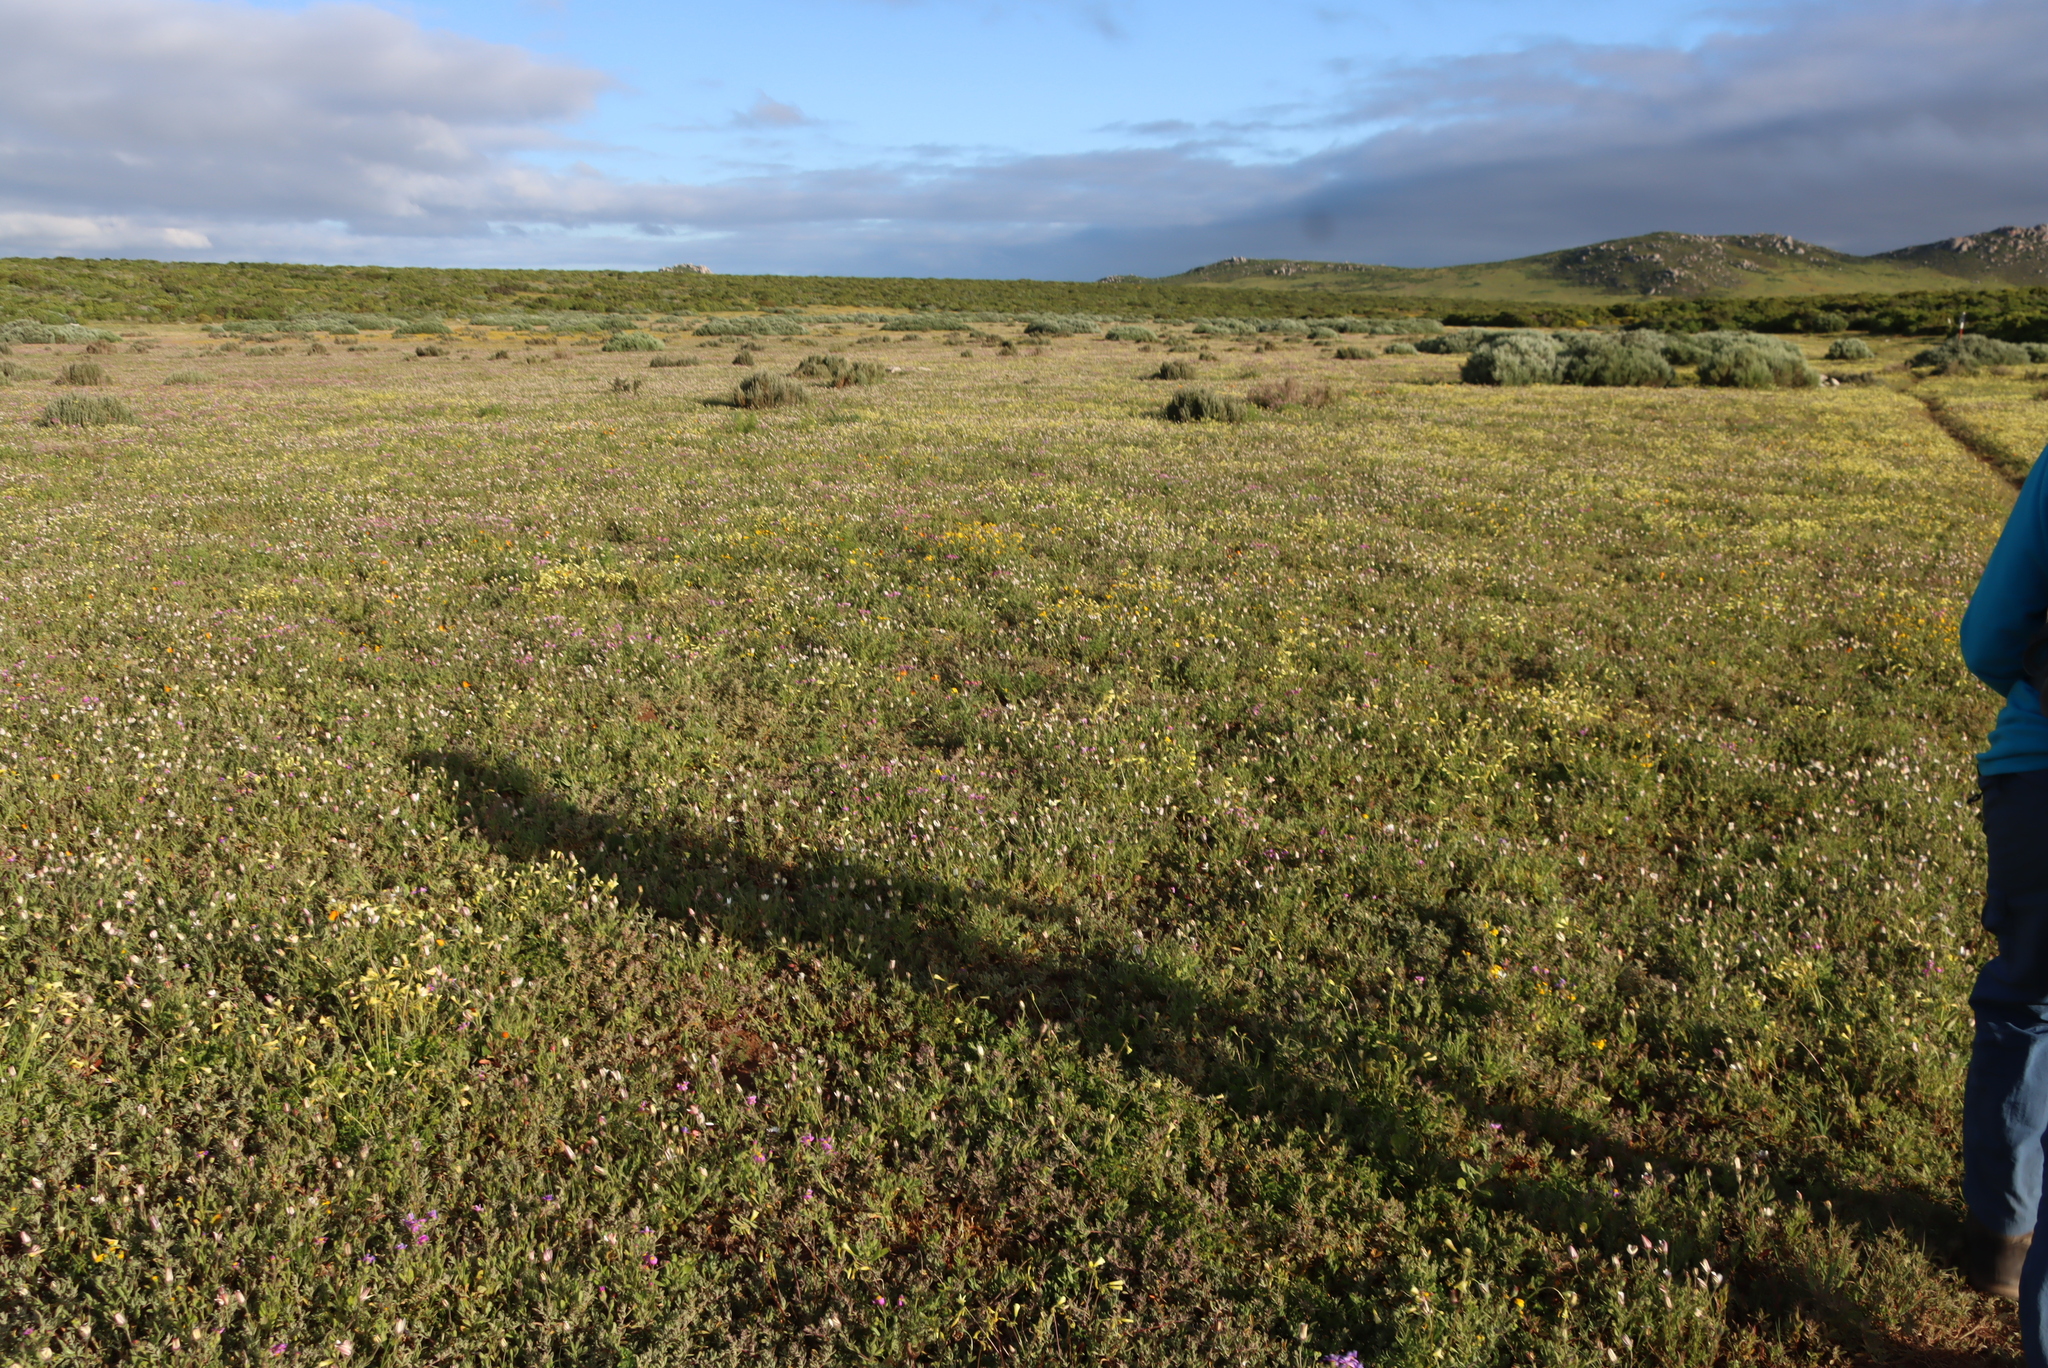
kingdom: Plantae
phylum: Tracheophyta
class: Magnoliopsida
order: Oxalidales
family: Oxalidaceae
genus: Oxalis
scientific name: Oxalis pes-caprae
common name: Bermuda-buttercup
